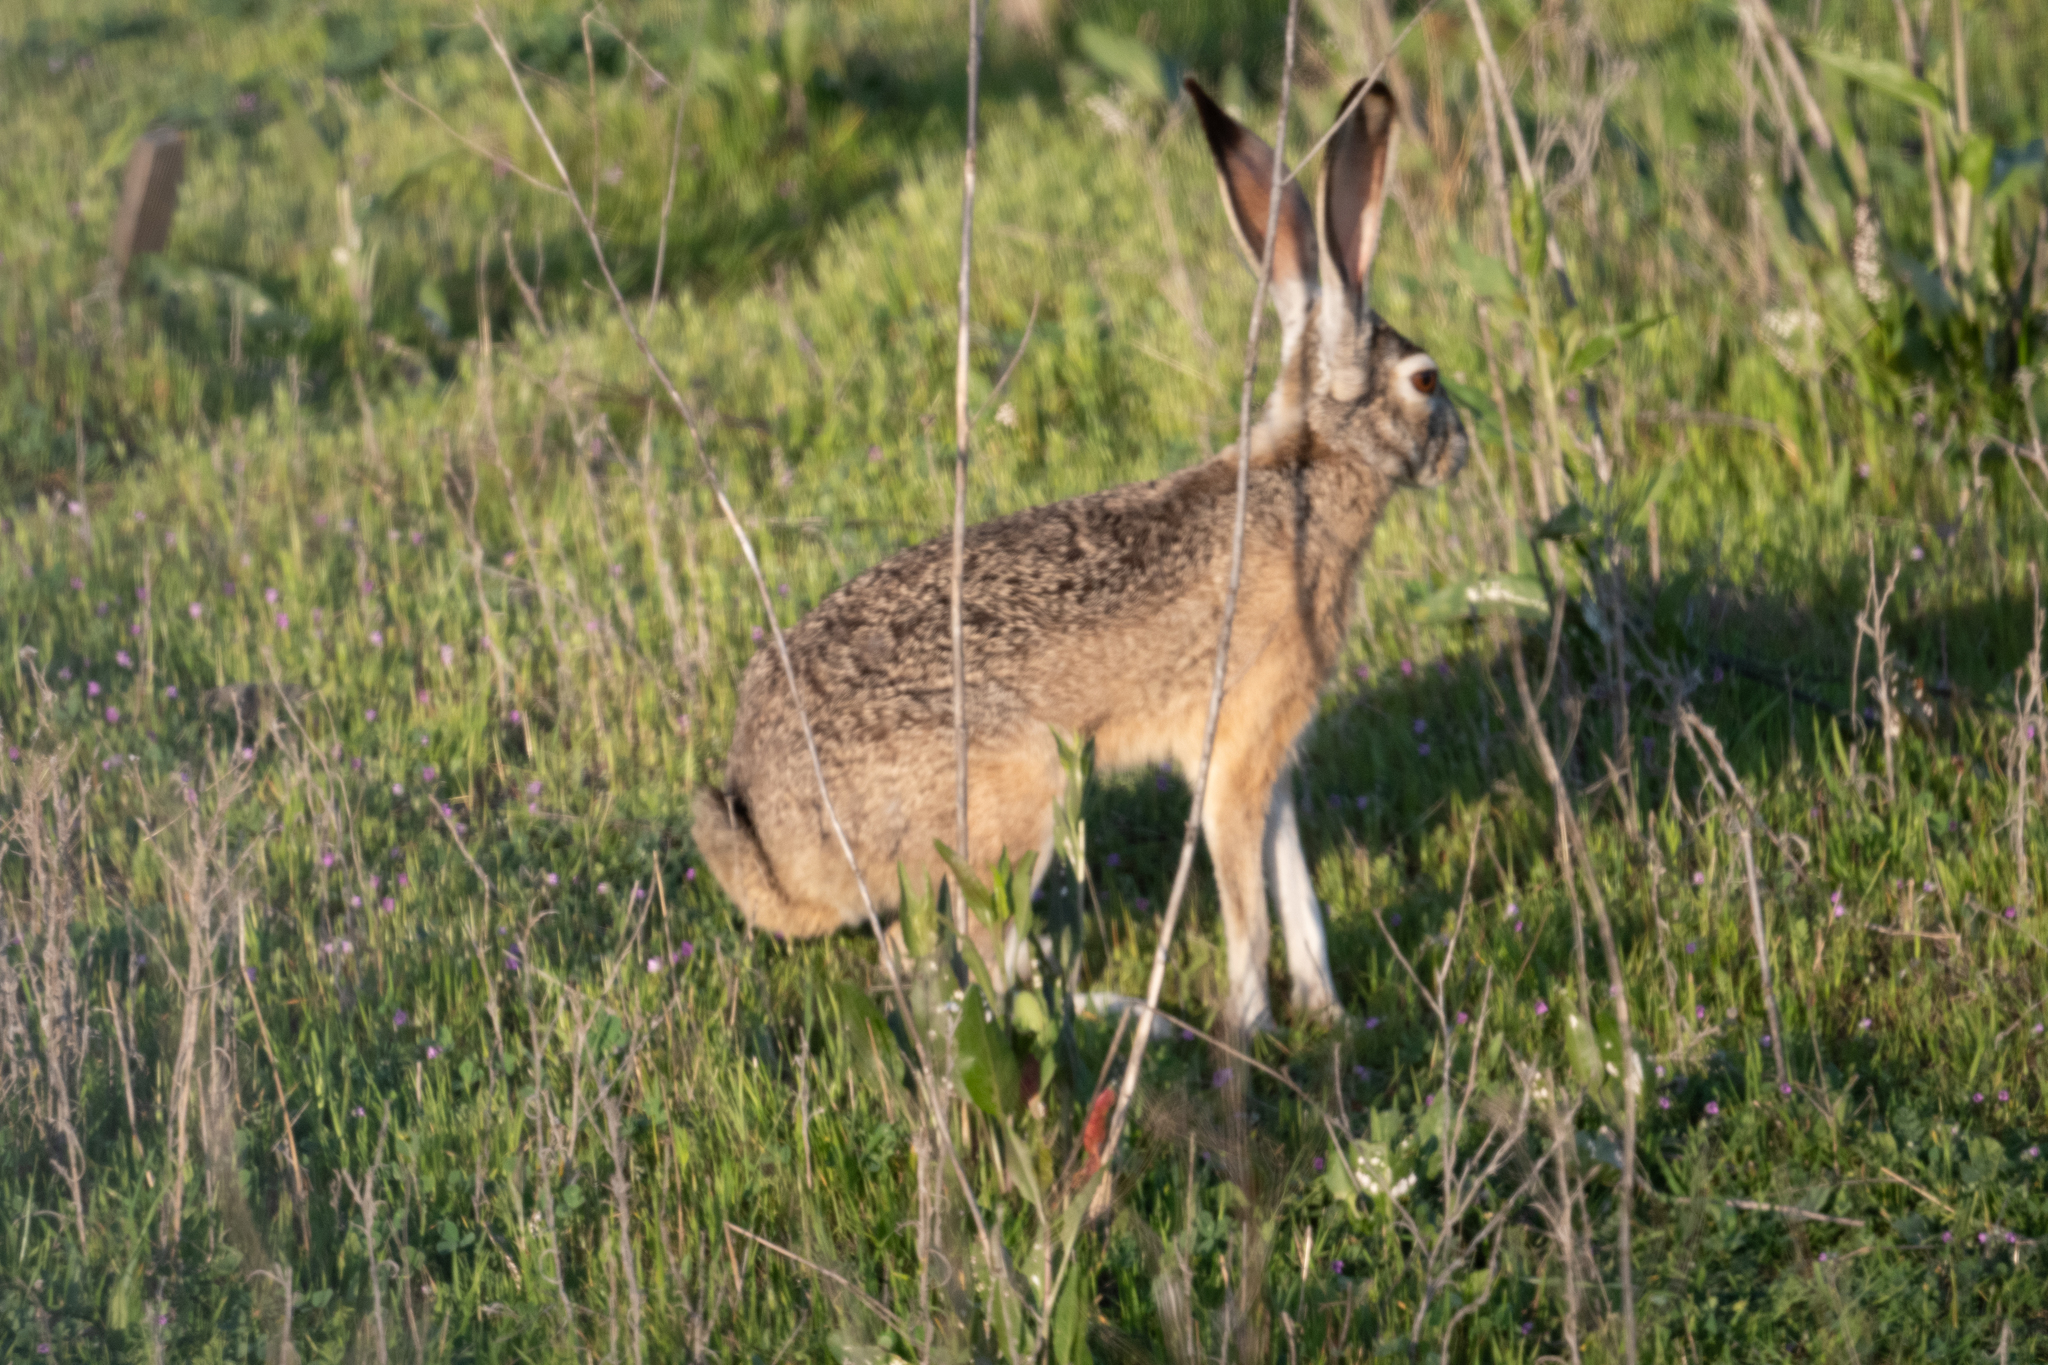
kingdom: Animalia
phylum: Chordata
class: Mammalia
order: Lagomorpha
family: Leporidae
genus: Lepus
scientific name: Lepus californicus
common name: Black-tailed jackrabbit
